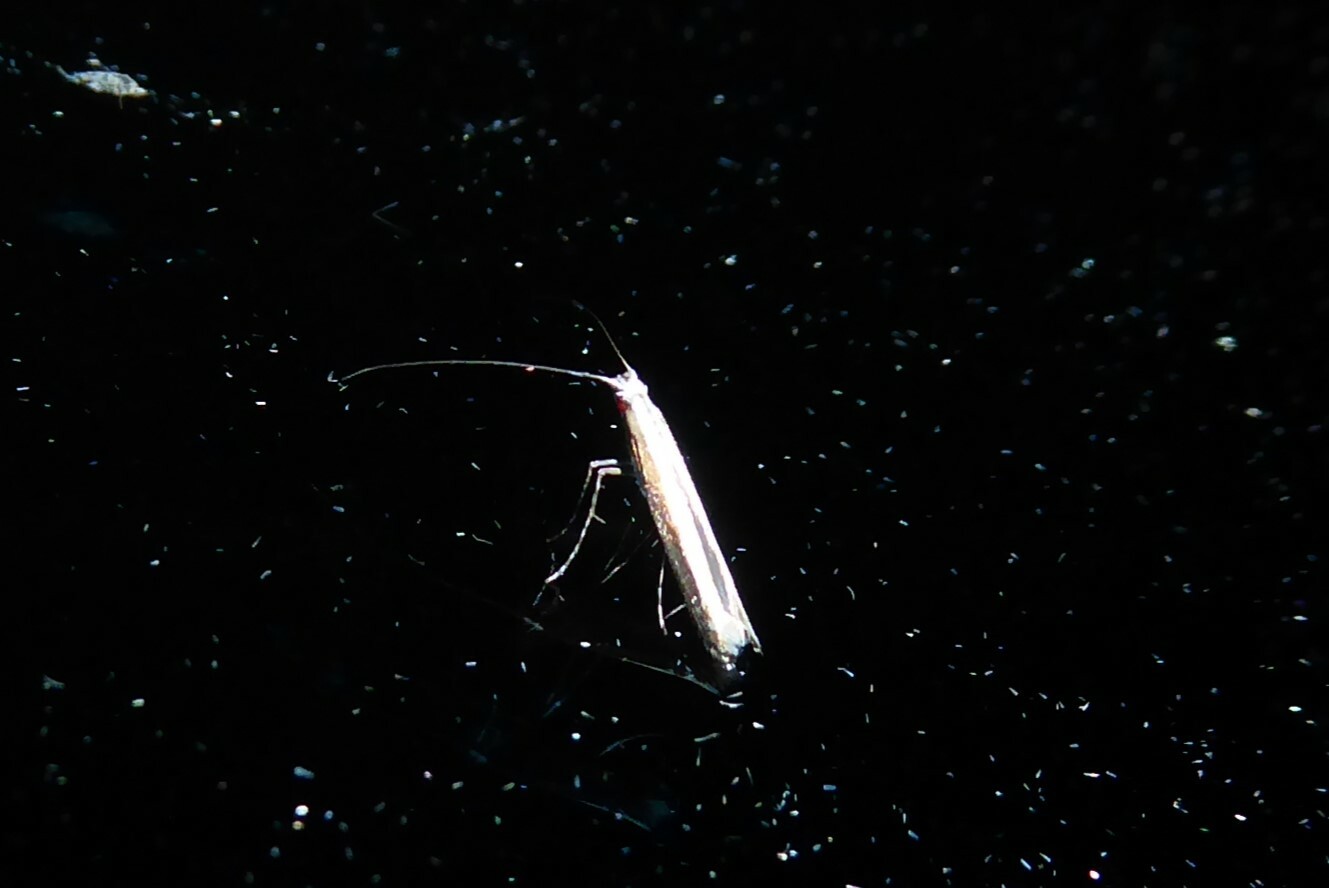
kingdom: Animalia
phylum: Arthropoda
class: Insecta
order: Lepidoptera
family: Gracillariidae
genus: Acrocercops
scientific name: Acrocercops laciniella
